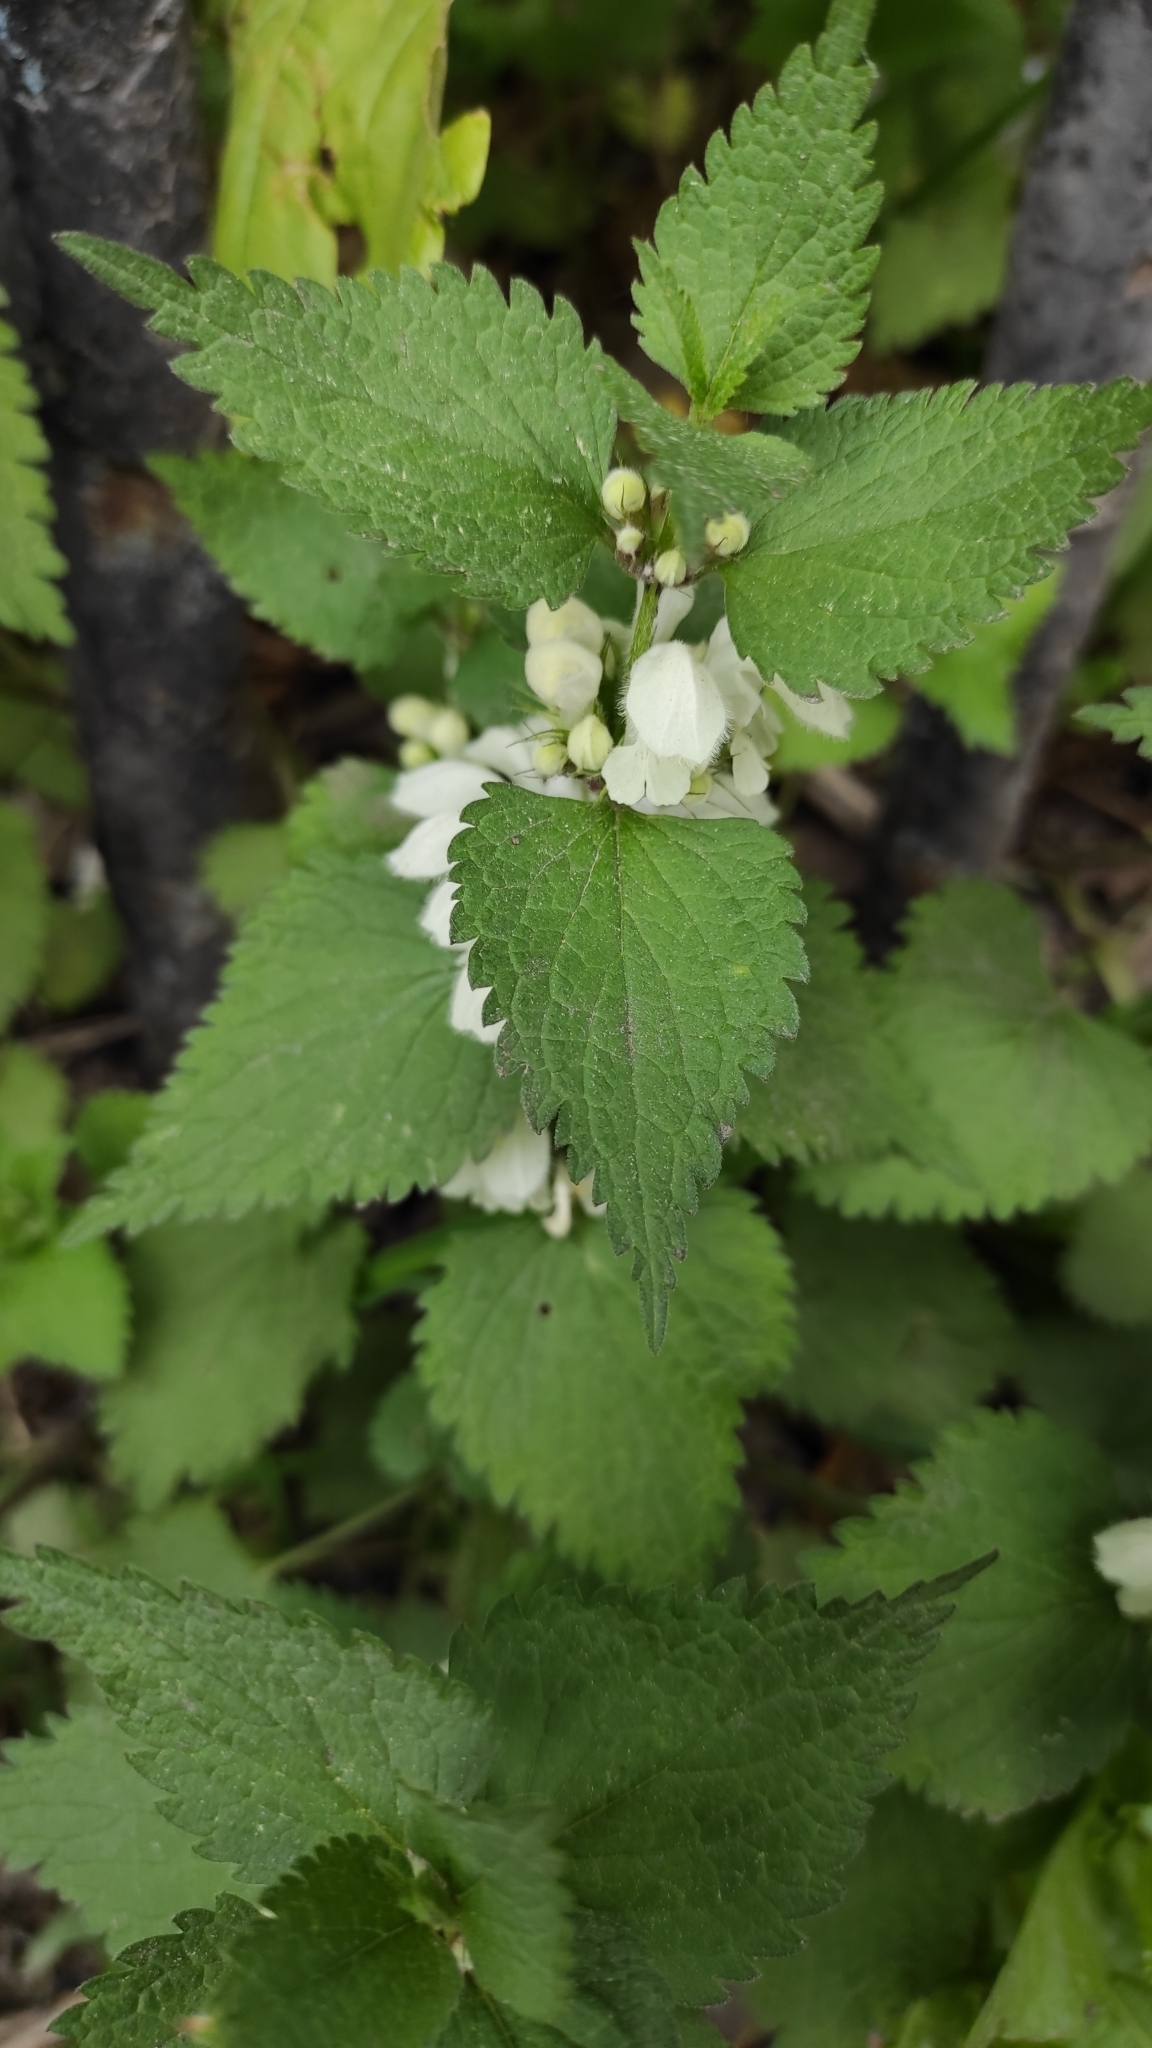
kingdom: Plantae
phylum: Tracheophyta
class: Magnoliopsida
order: Lamiales
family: Lamiaceae
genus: Lamium
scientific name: Lamium album
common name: White dead-nettle
